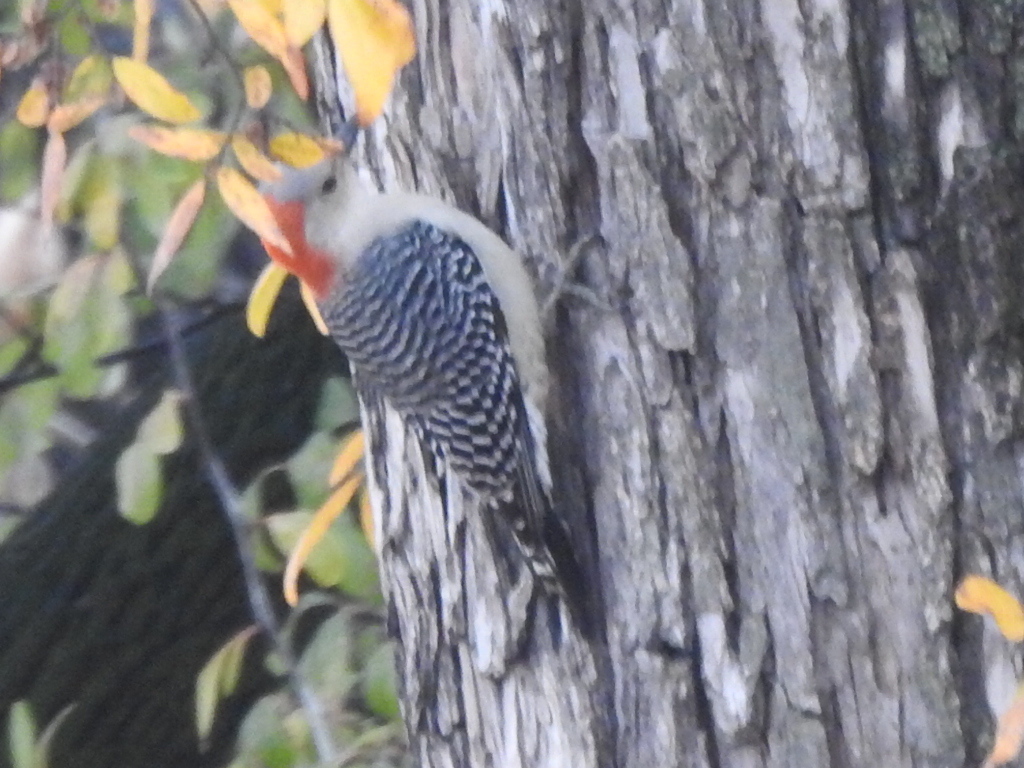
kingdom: Animalia
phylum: Chordata
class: Aves
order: Piciformes
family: Picidae
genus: Melanerpes
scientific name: Melanerpes carolinus
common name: Red-bellied woodpecker
